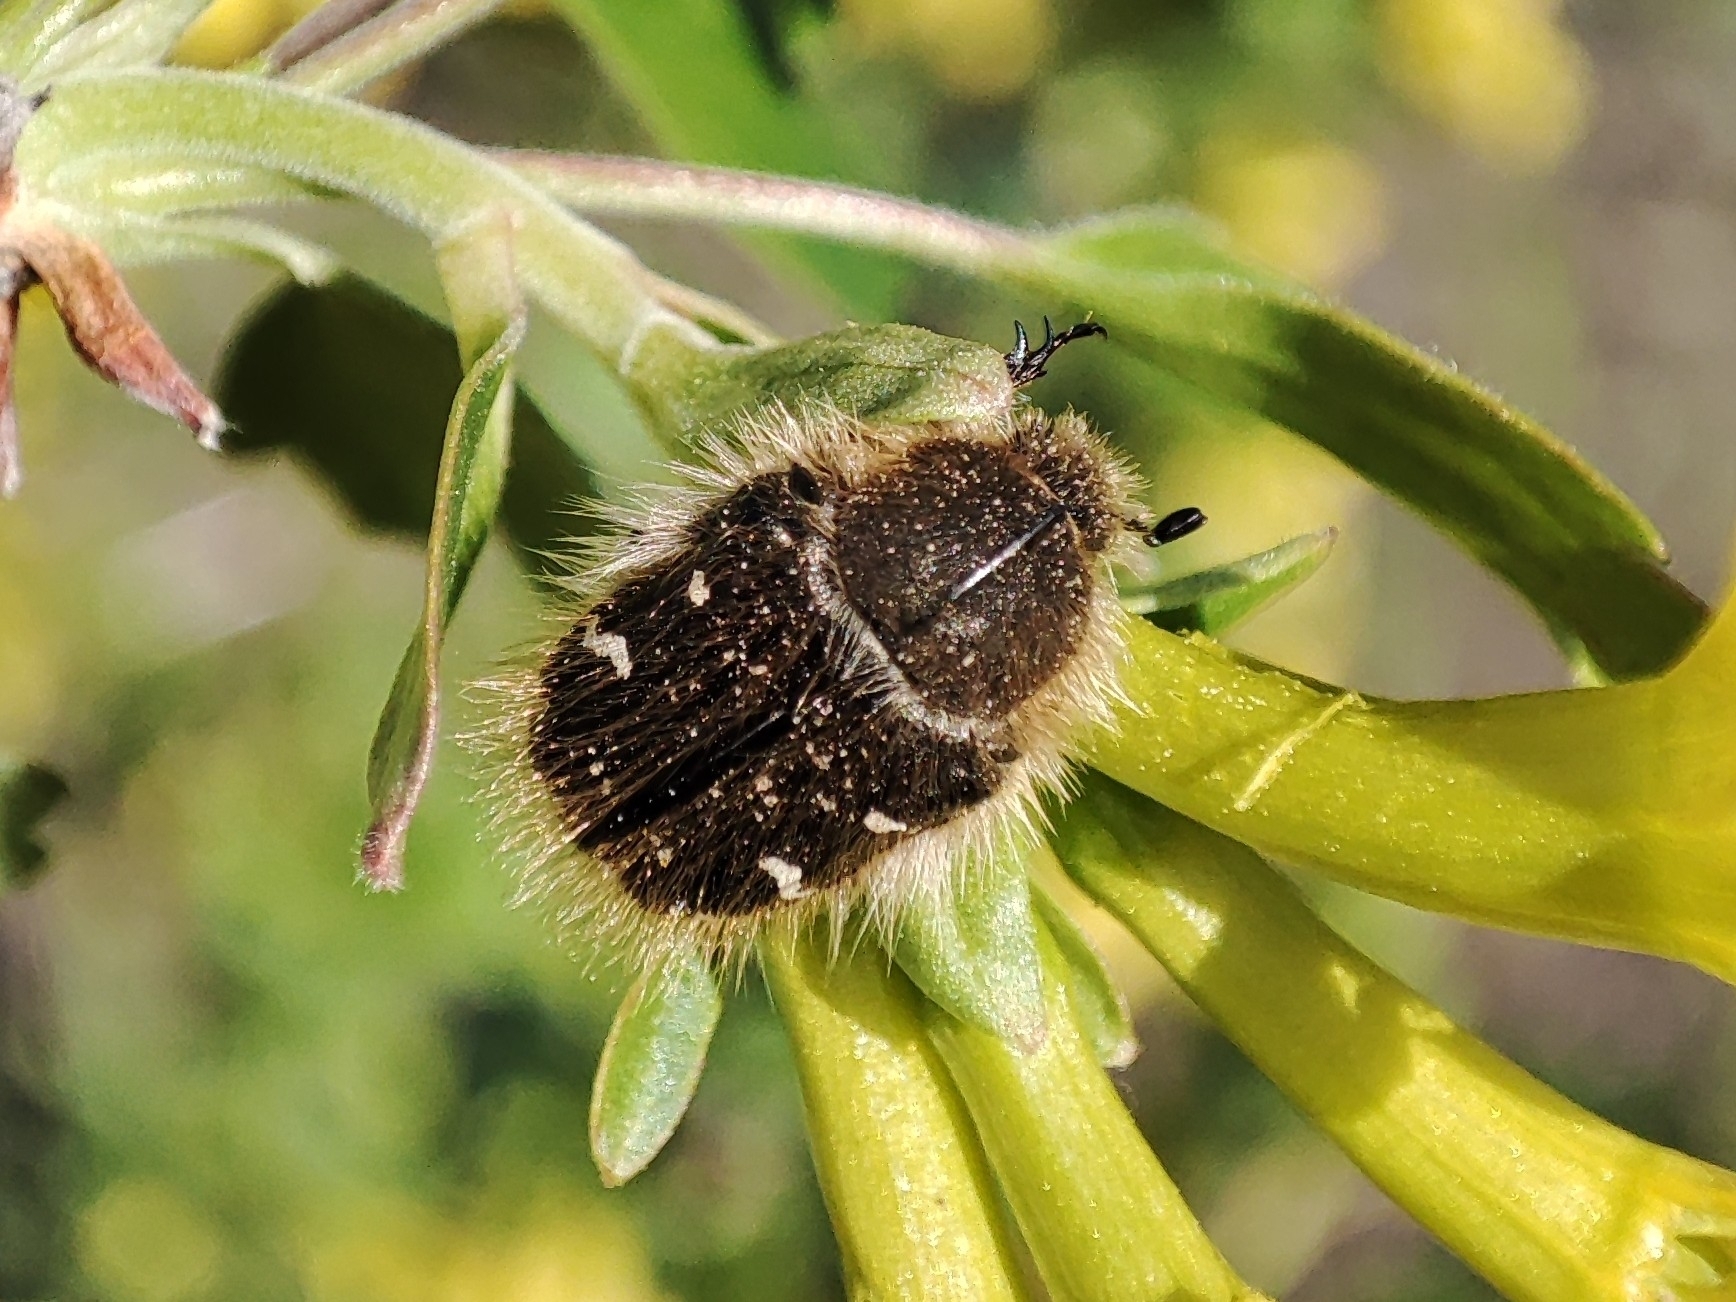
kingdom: Animalia
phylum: Arthropoda
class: Insecta
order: Coleoptera
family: Scarabaeidae
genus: Tropinota
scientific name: Tropinota hirta
